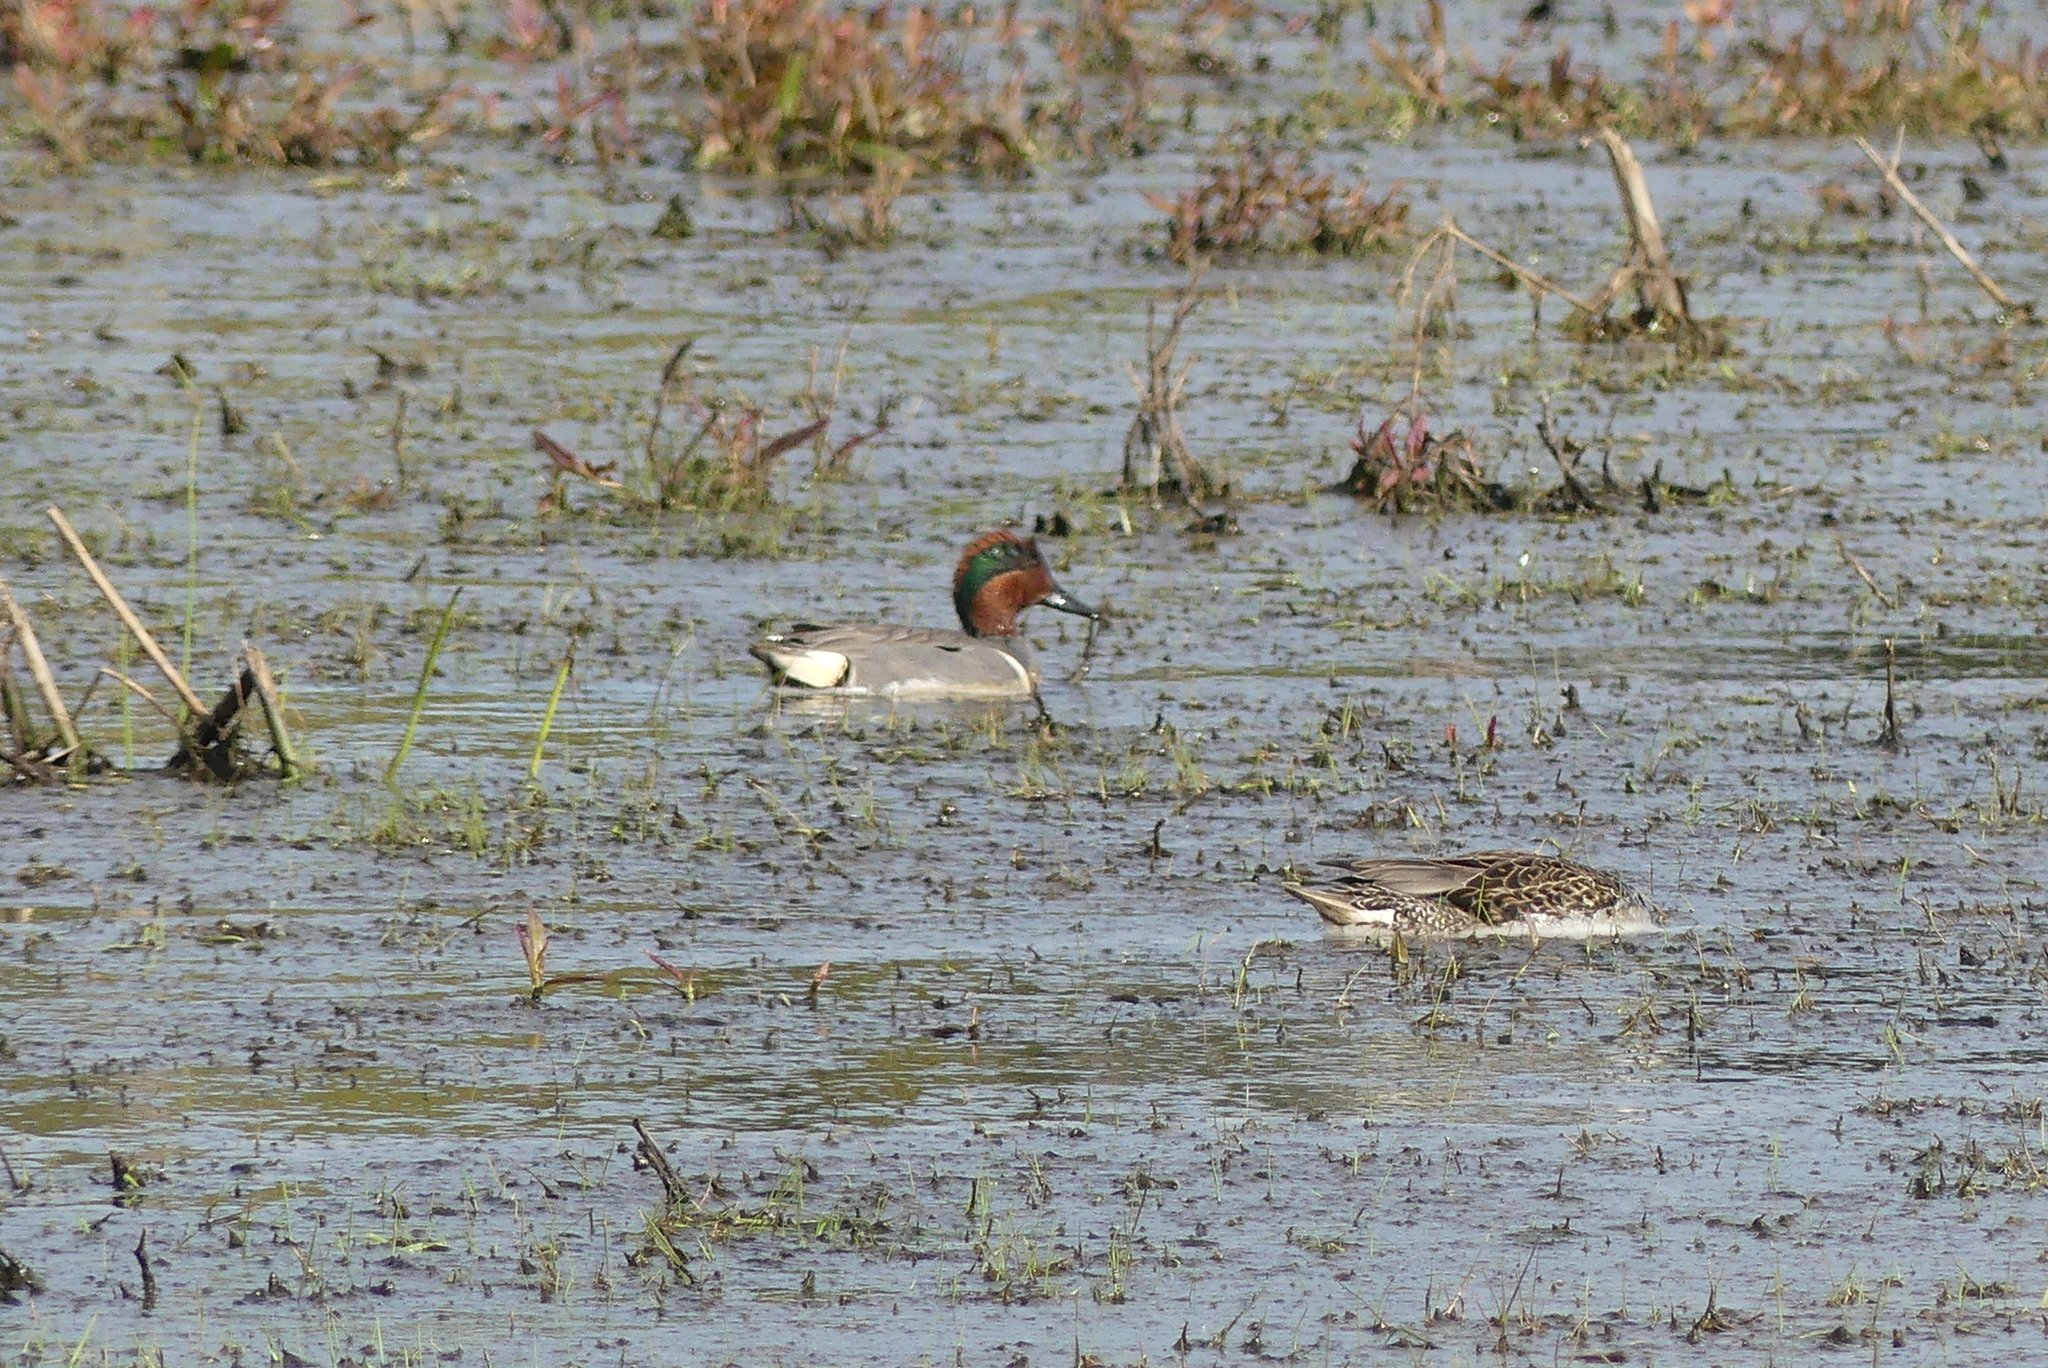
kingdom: Animalia
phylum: Chordata
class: Aves
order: Anseriformes
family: Anatidae
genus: Anas
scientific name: Anas crecca
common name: Eurasian teal
